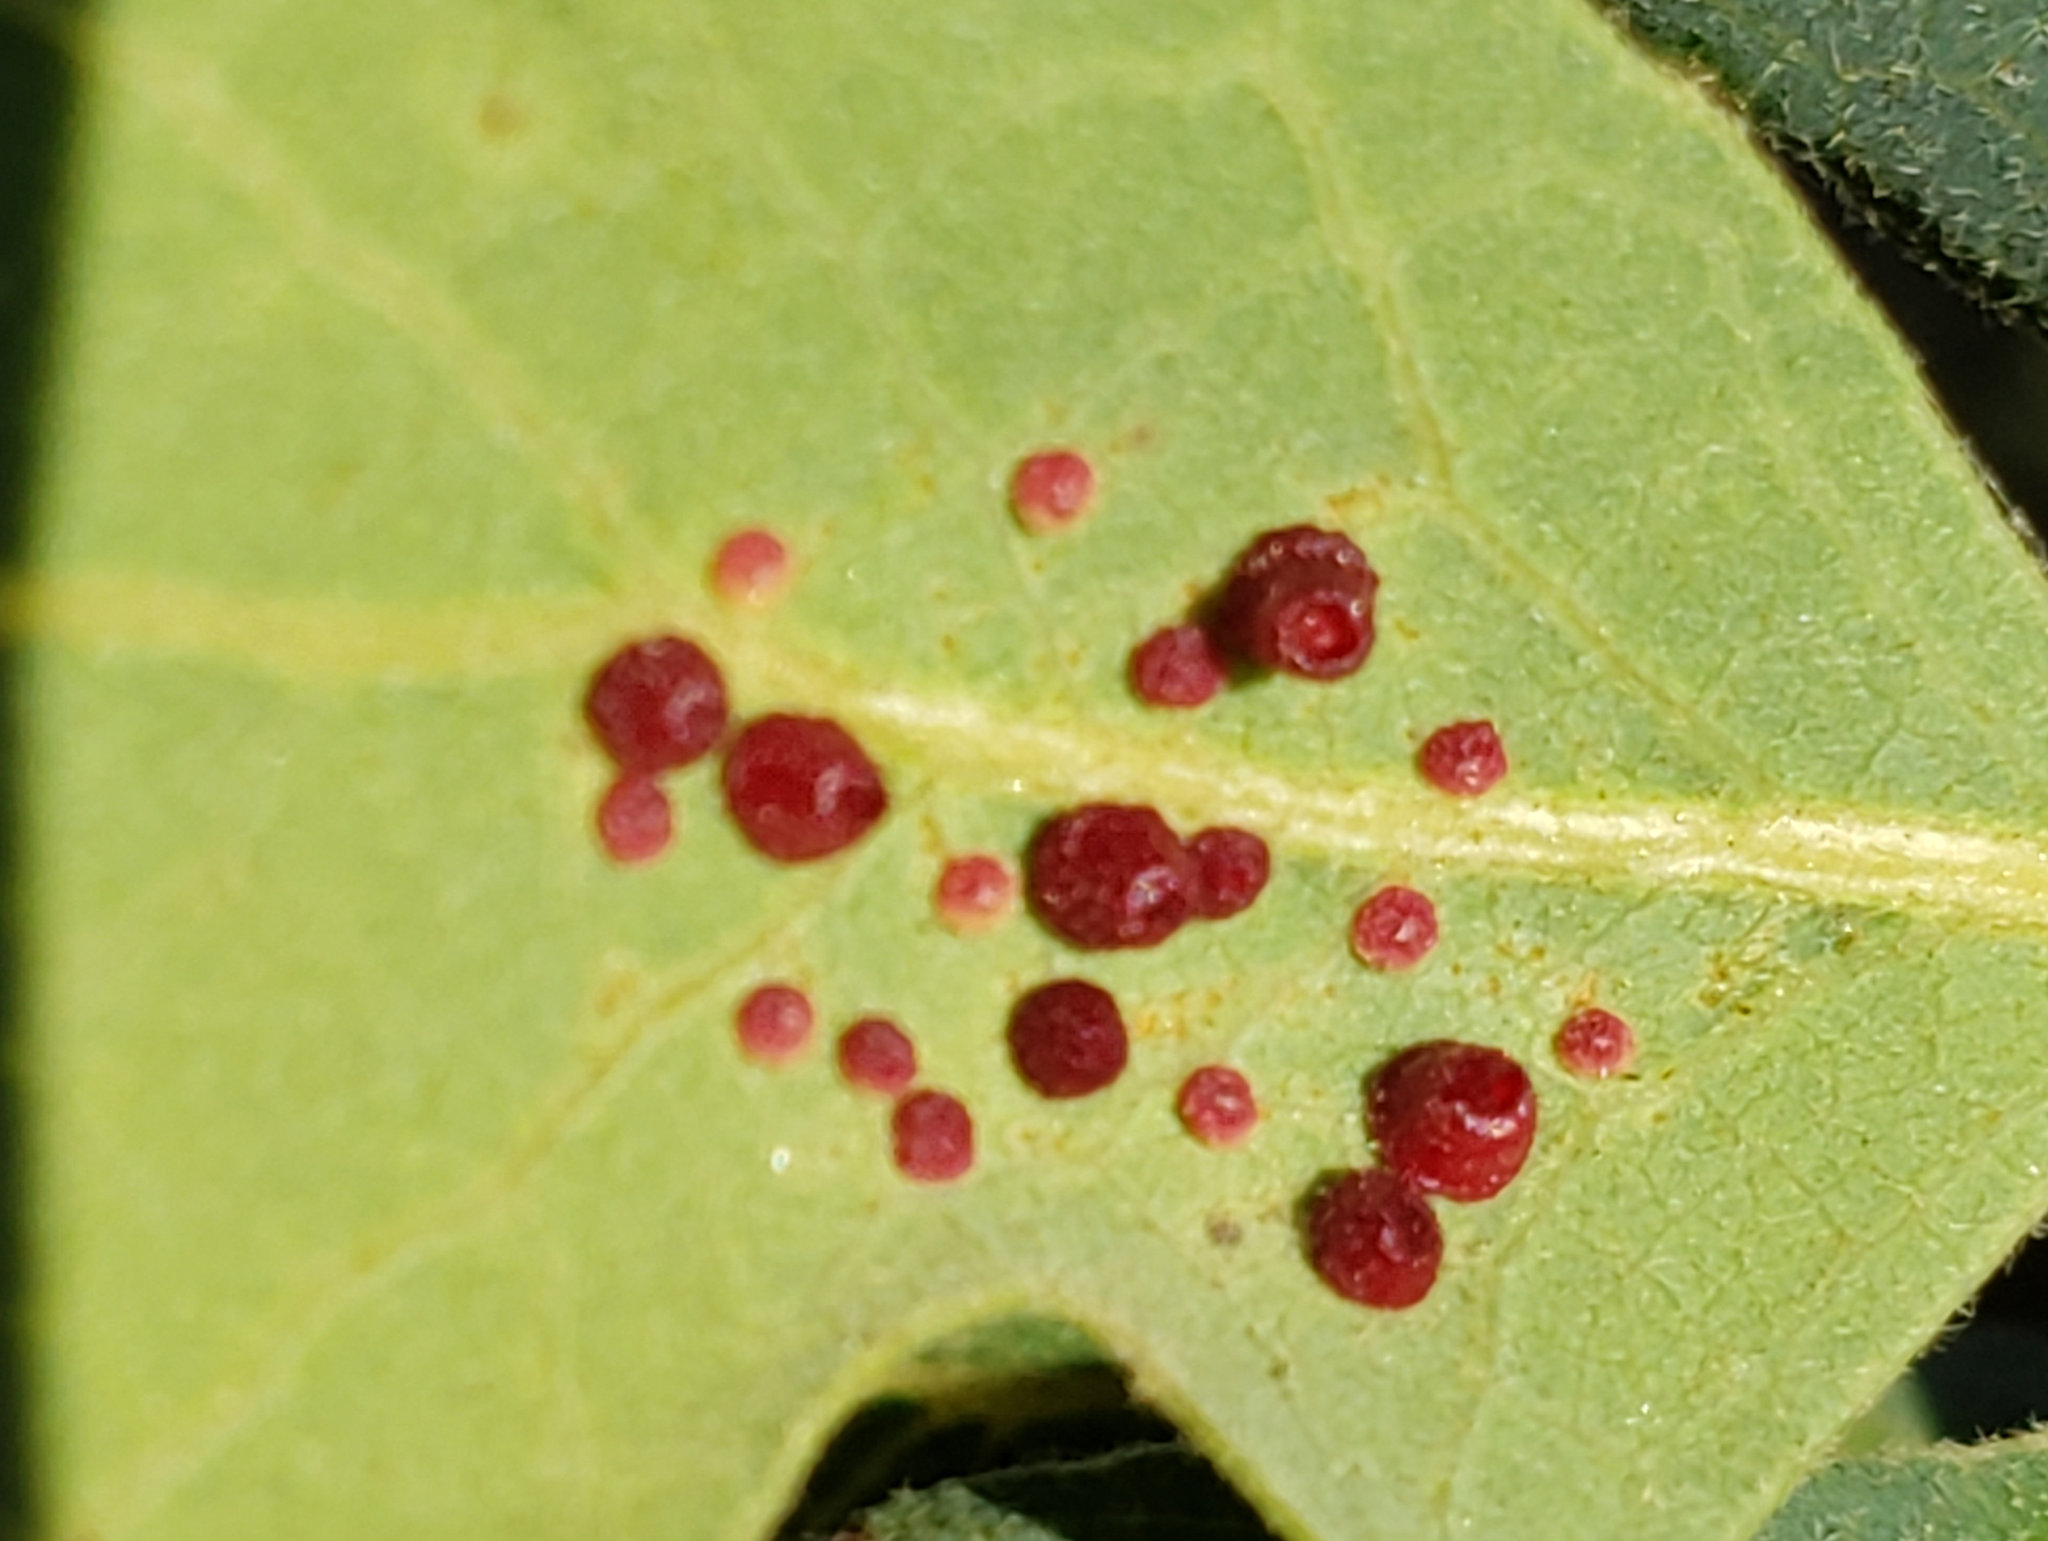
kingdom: Animalia
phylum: Arthropoda
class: Insecta
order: Hymenoptera
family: Cynipidae
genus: Andricus
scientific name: Andricus
